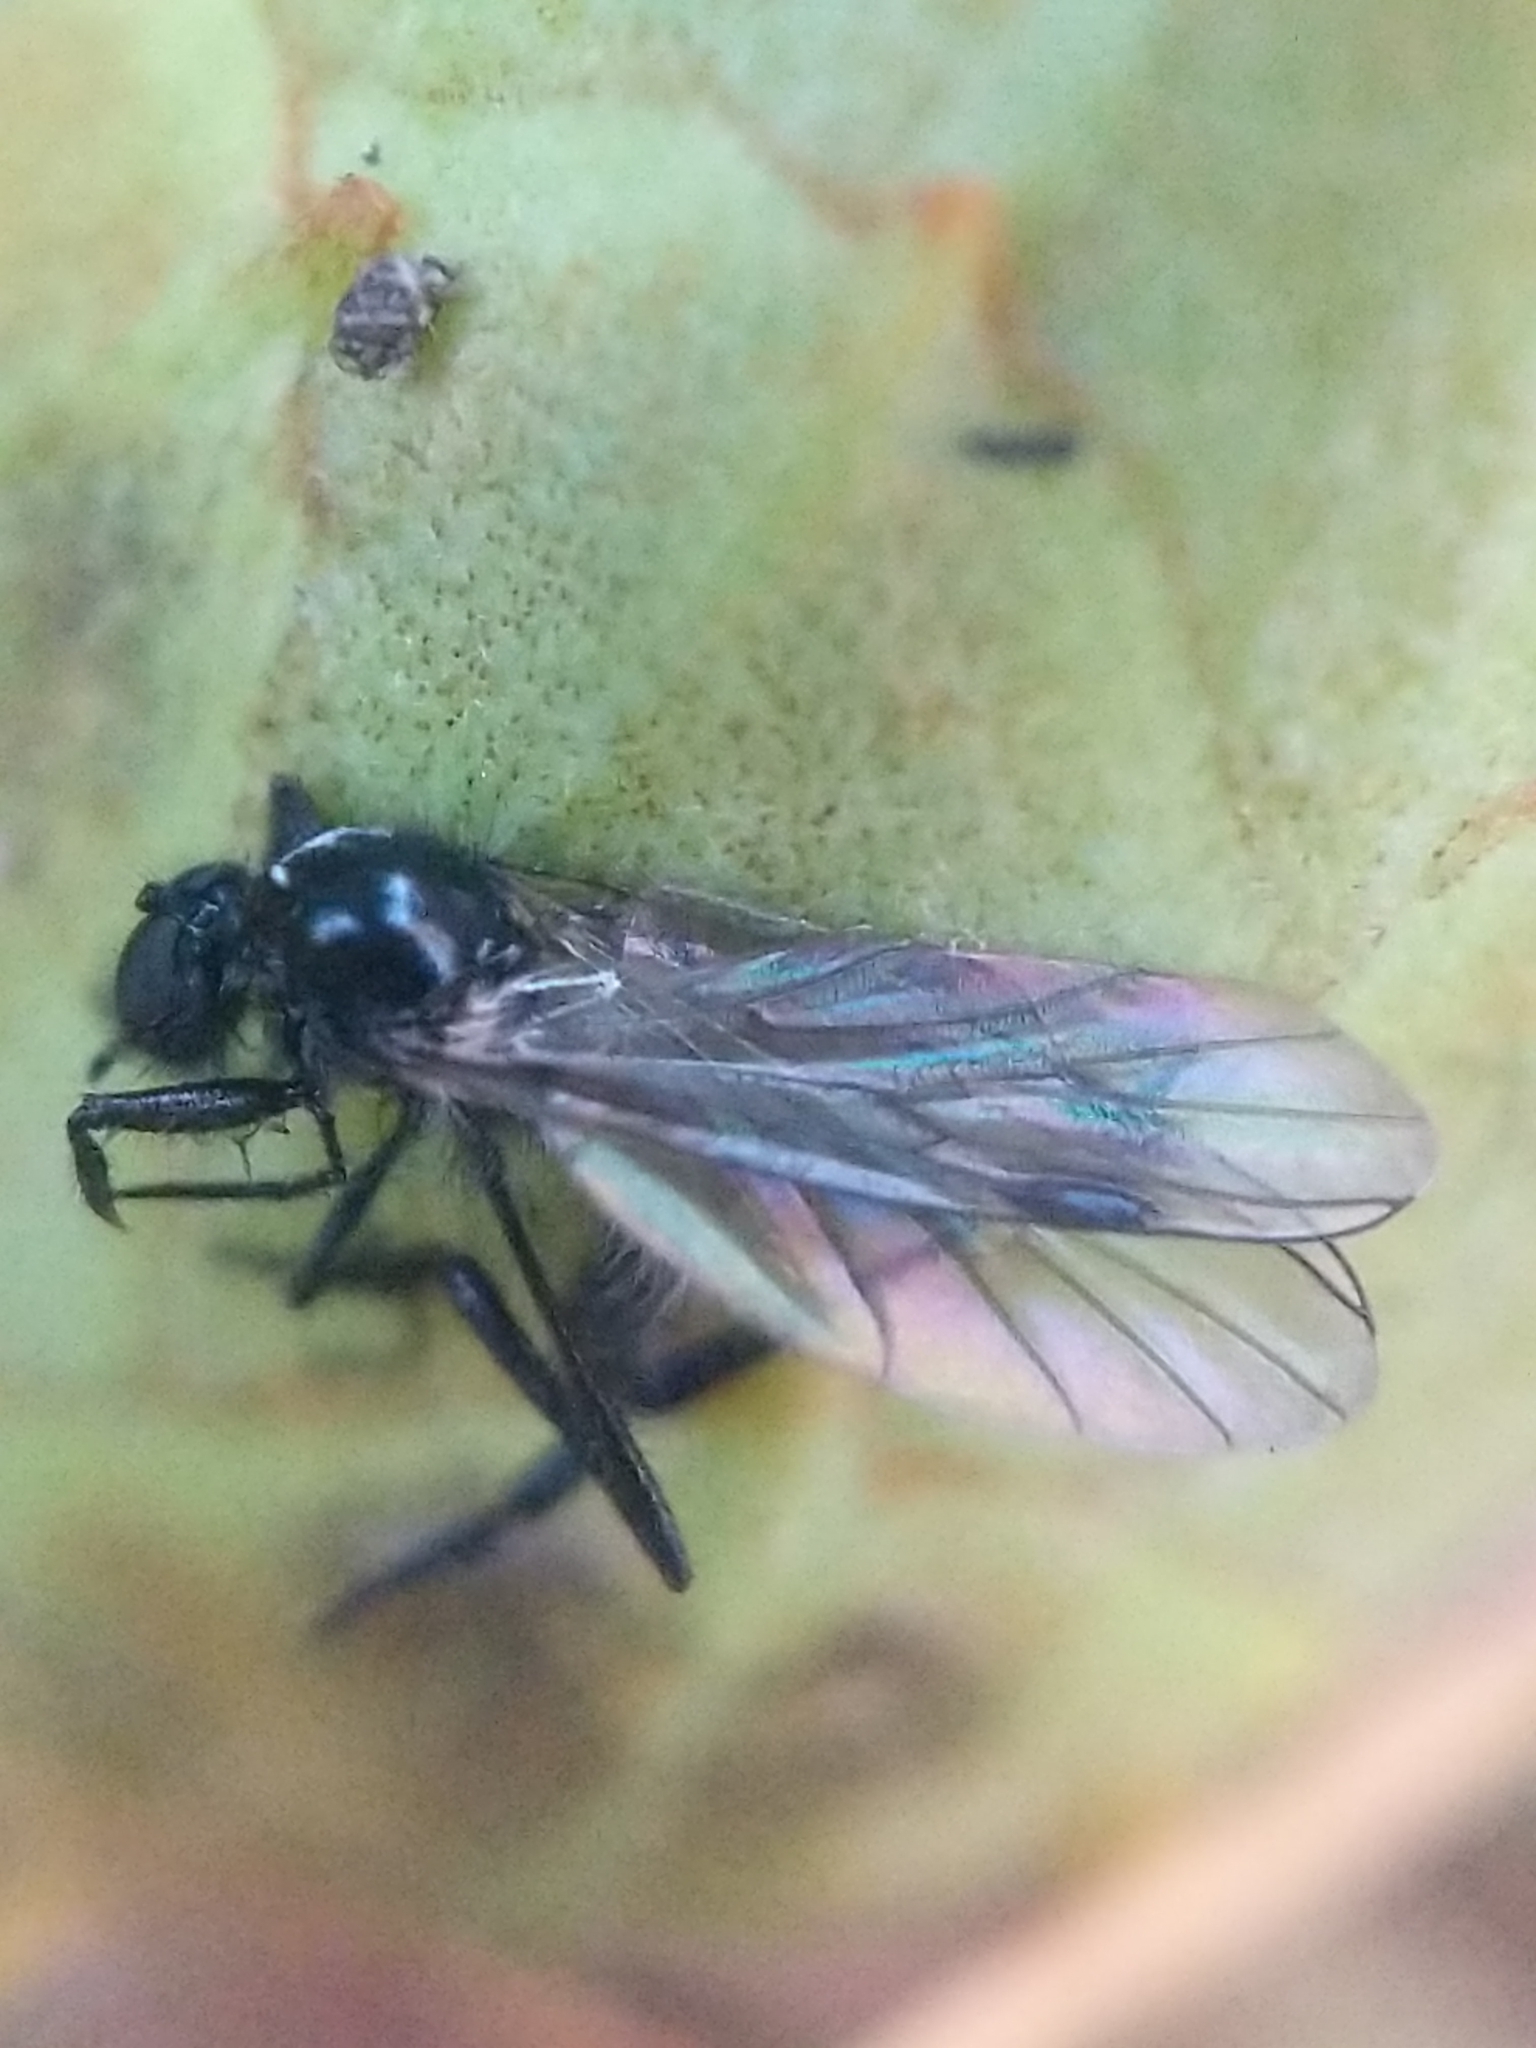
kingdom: Animalia
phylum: Arthropoda
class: Insecta
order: Diptera
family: Bibionidae
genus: Bibio
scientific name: Bibio slossonae
